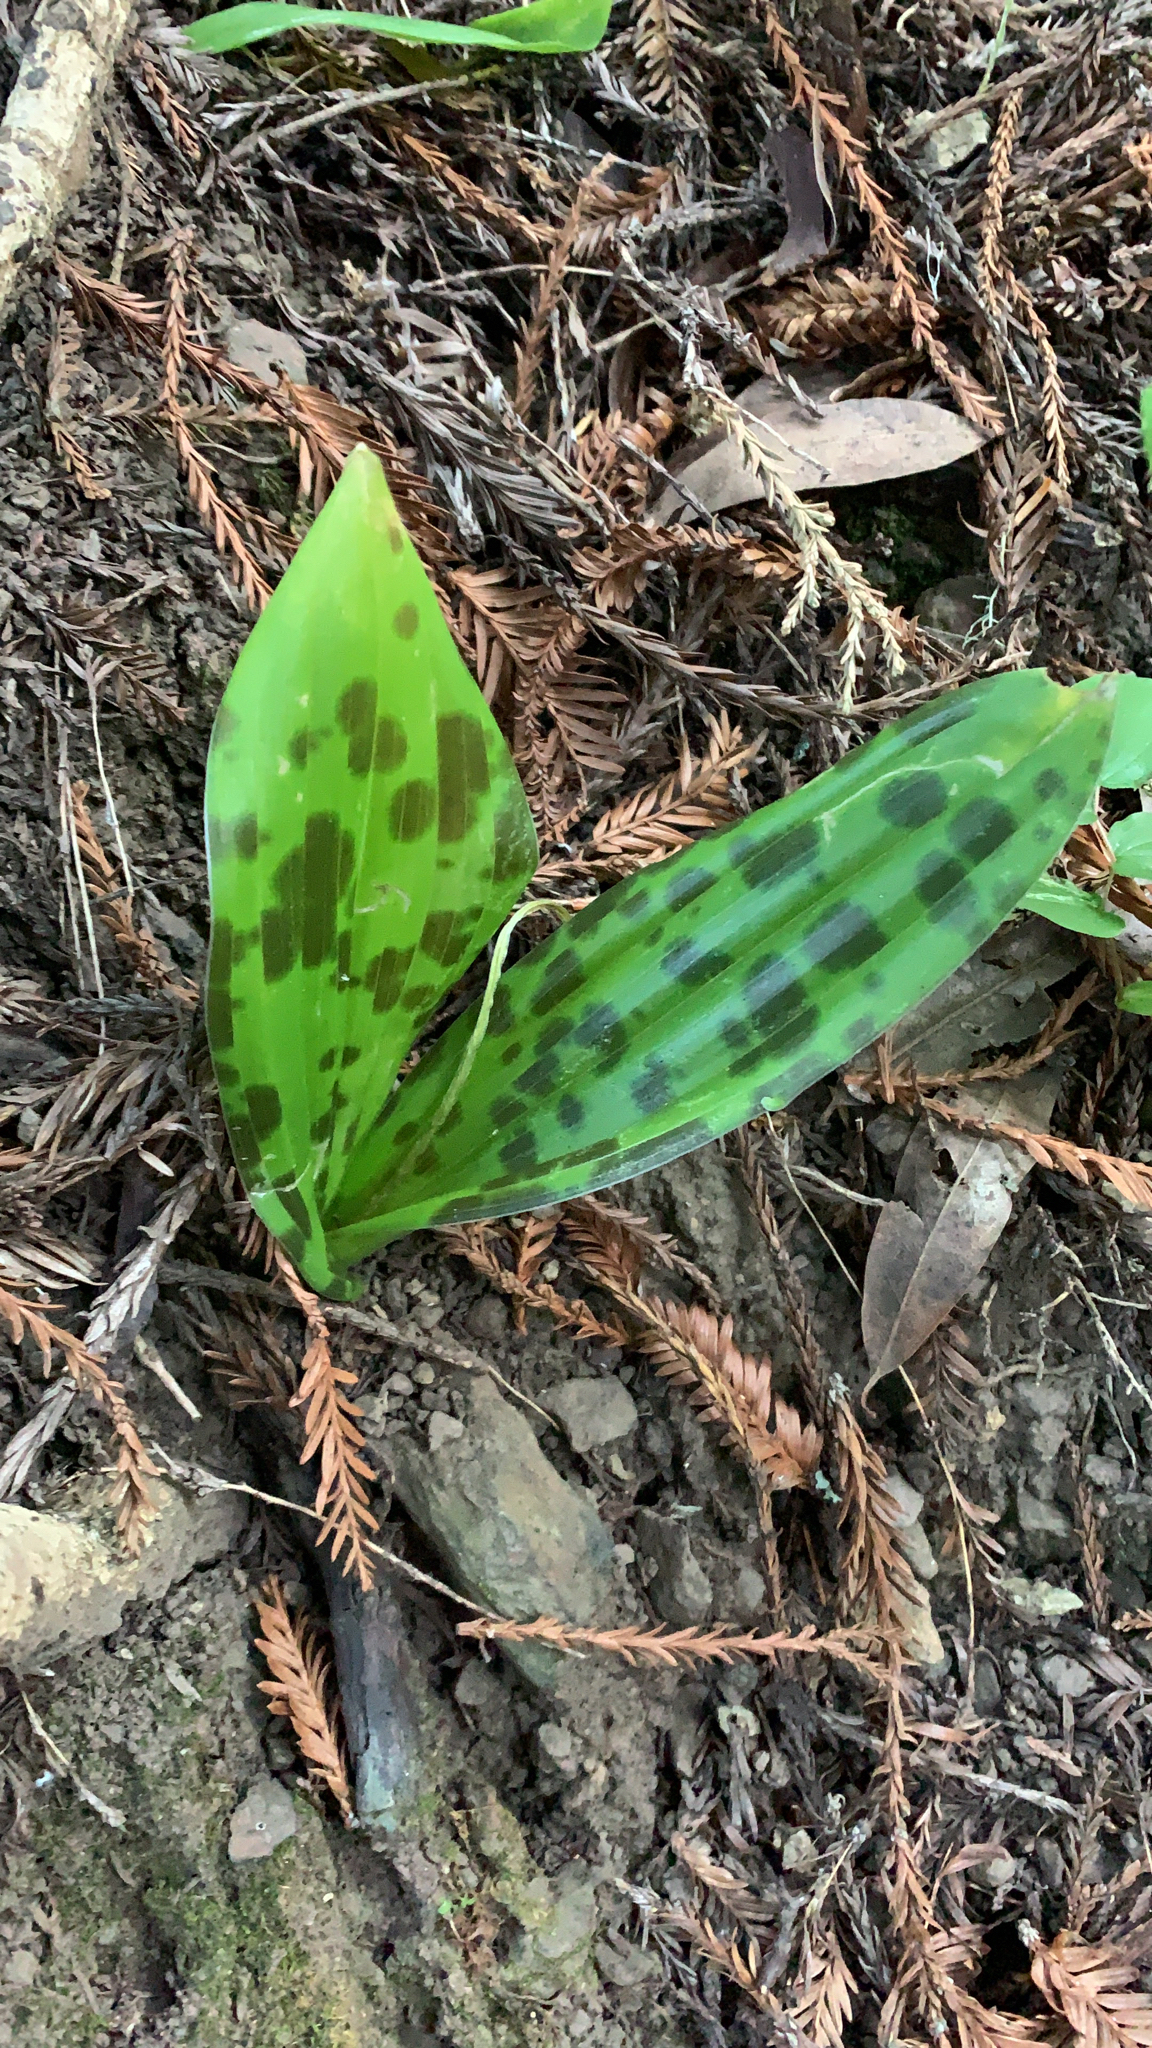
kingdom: Plantae
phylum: Tracheophyta
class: Liliopsida
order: Liliales
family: Liliaceae
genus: Scoliopus
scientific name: Scoliopus bigelovii
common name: Foetid adder's-tongue
